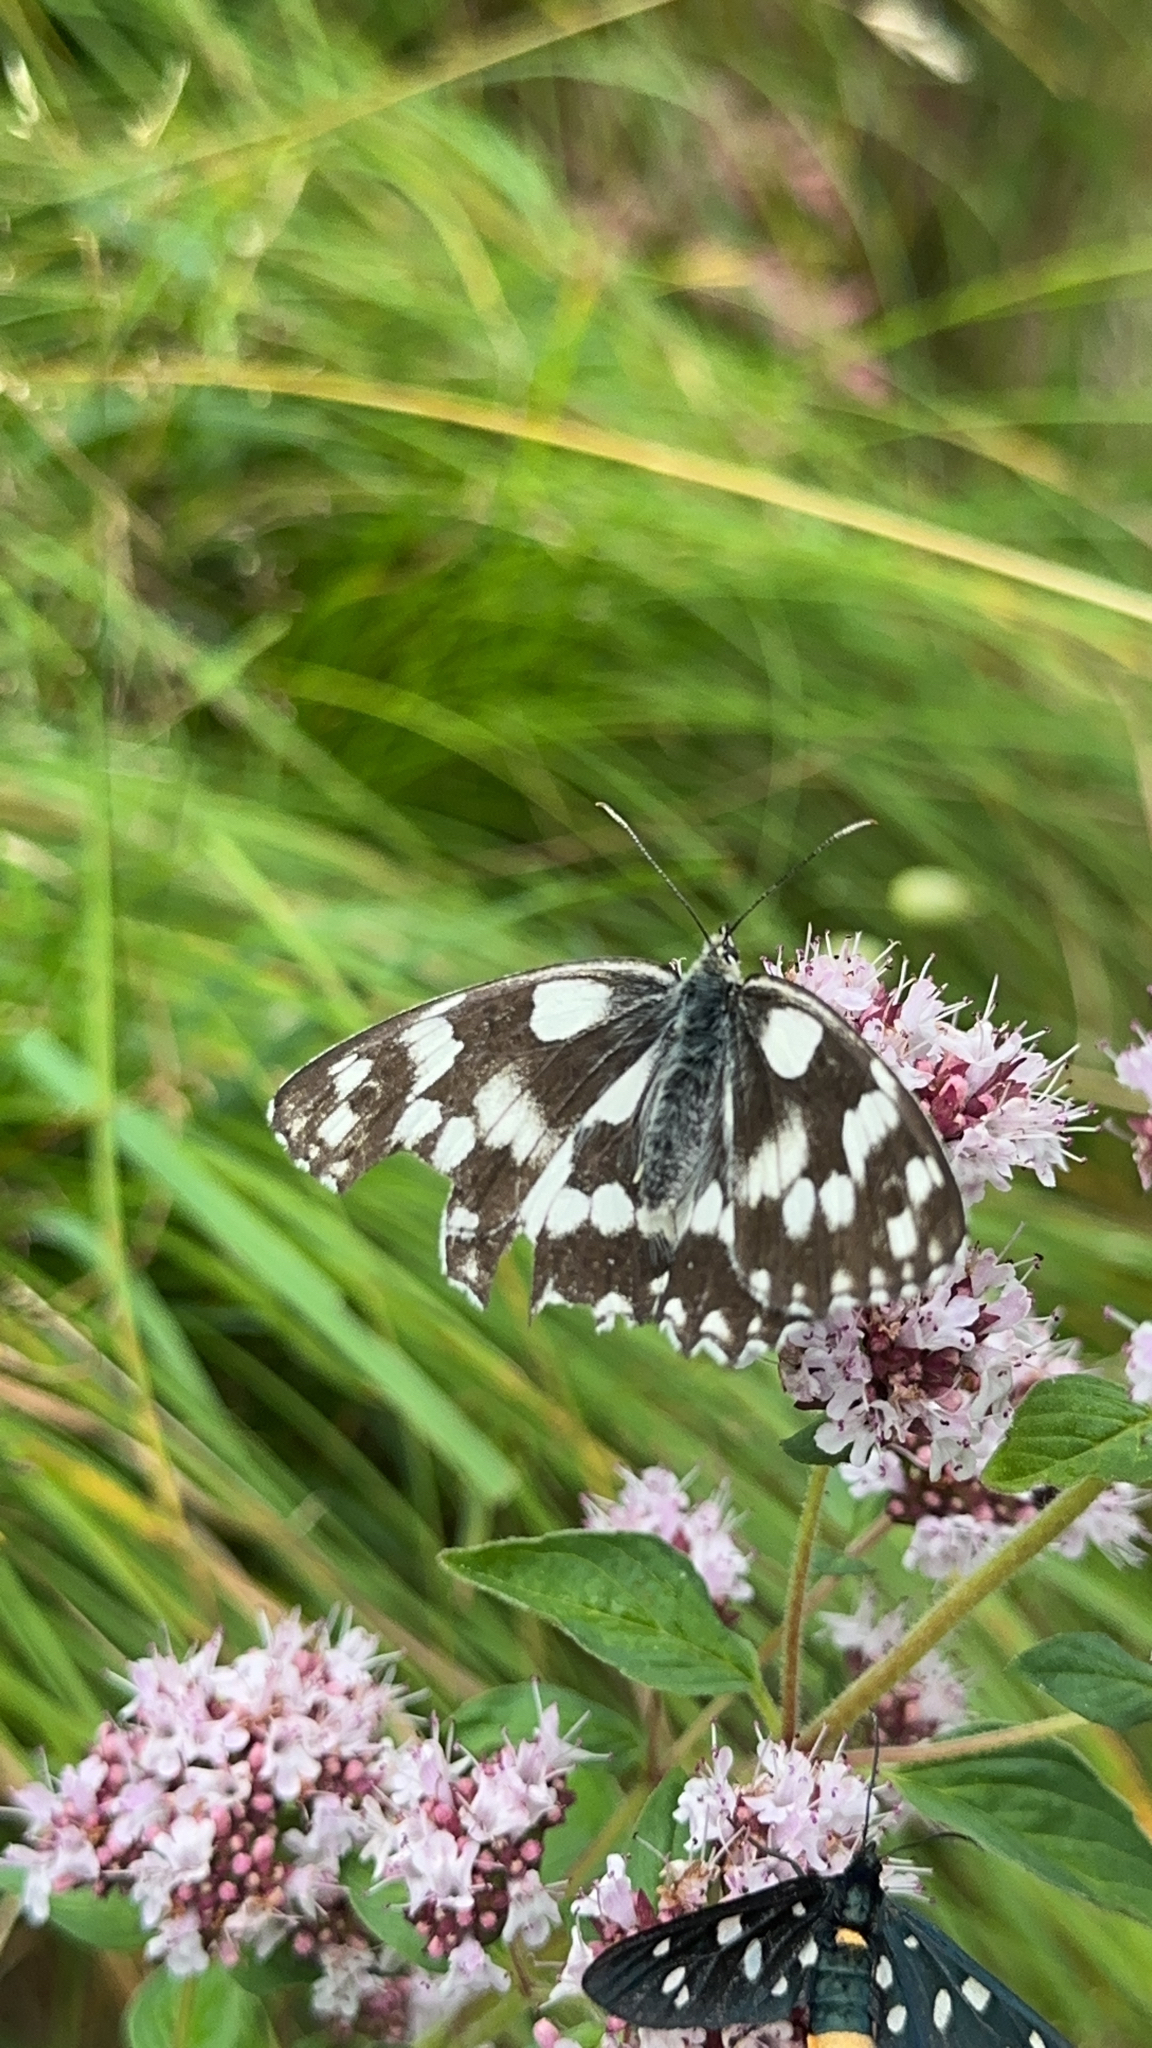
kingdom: Animalia
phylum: Arthropoda
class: Insecta
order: Lepidoptera
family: Nymphalidae
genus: Melanargia
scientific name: Melanargia galathea
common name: Marbled white
